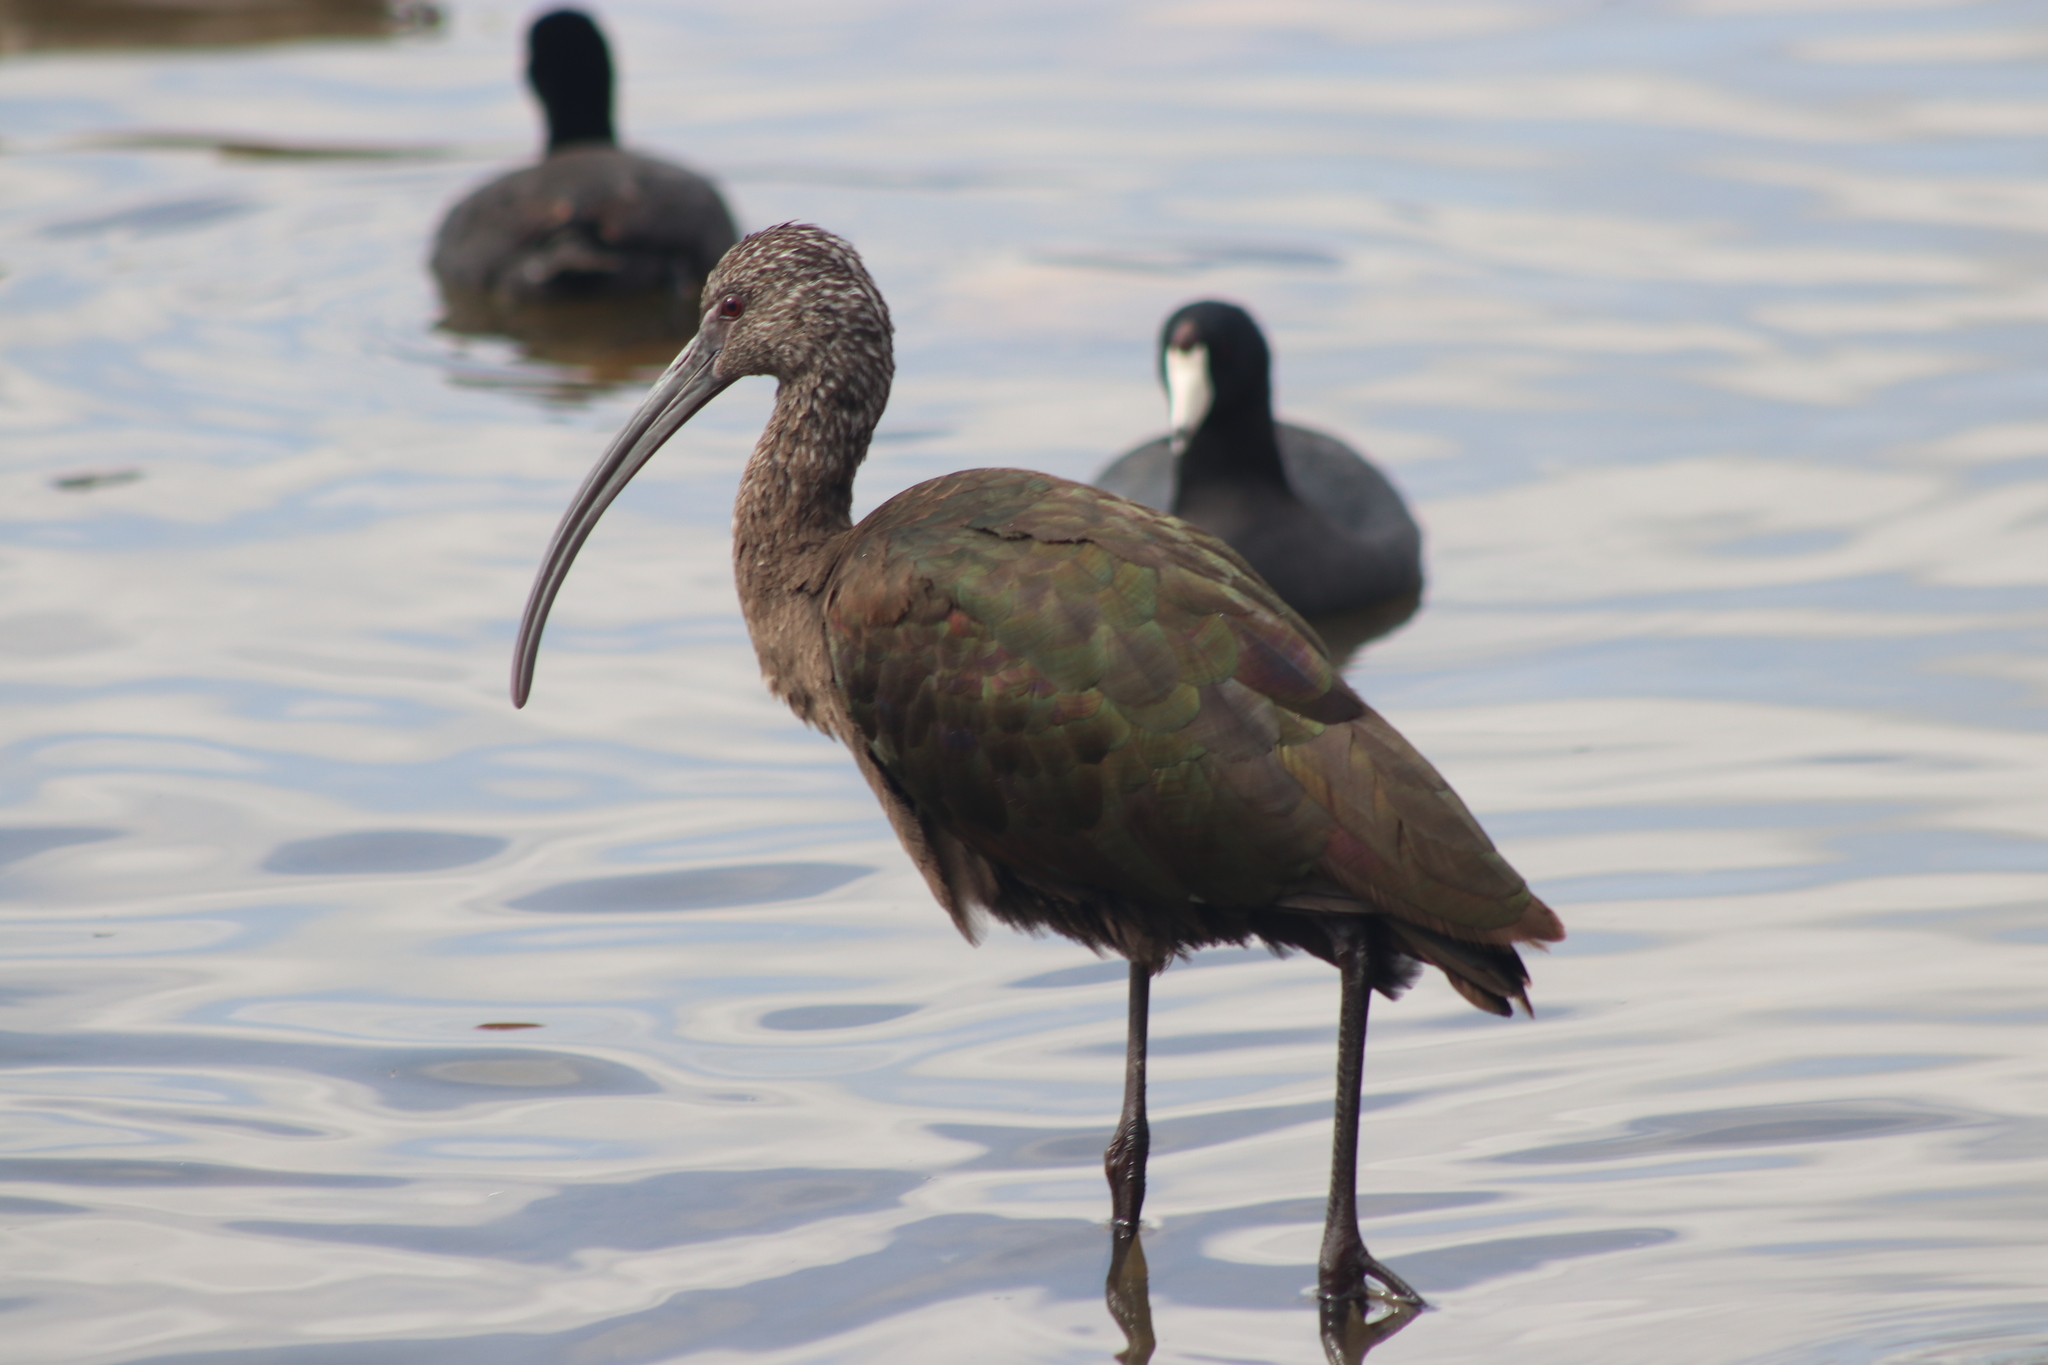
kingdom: Animalia
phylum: Chordata
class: Aves
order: Pelecaniformes
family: Threskiornithidae
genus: Plegadis
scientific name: Plegadis chihi
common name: White-faced ibis
